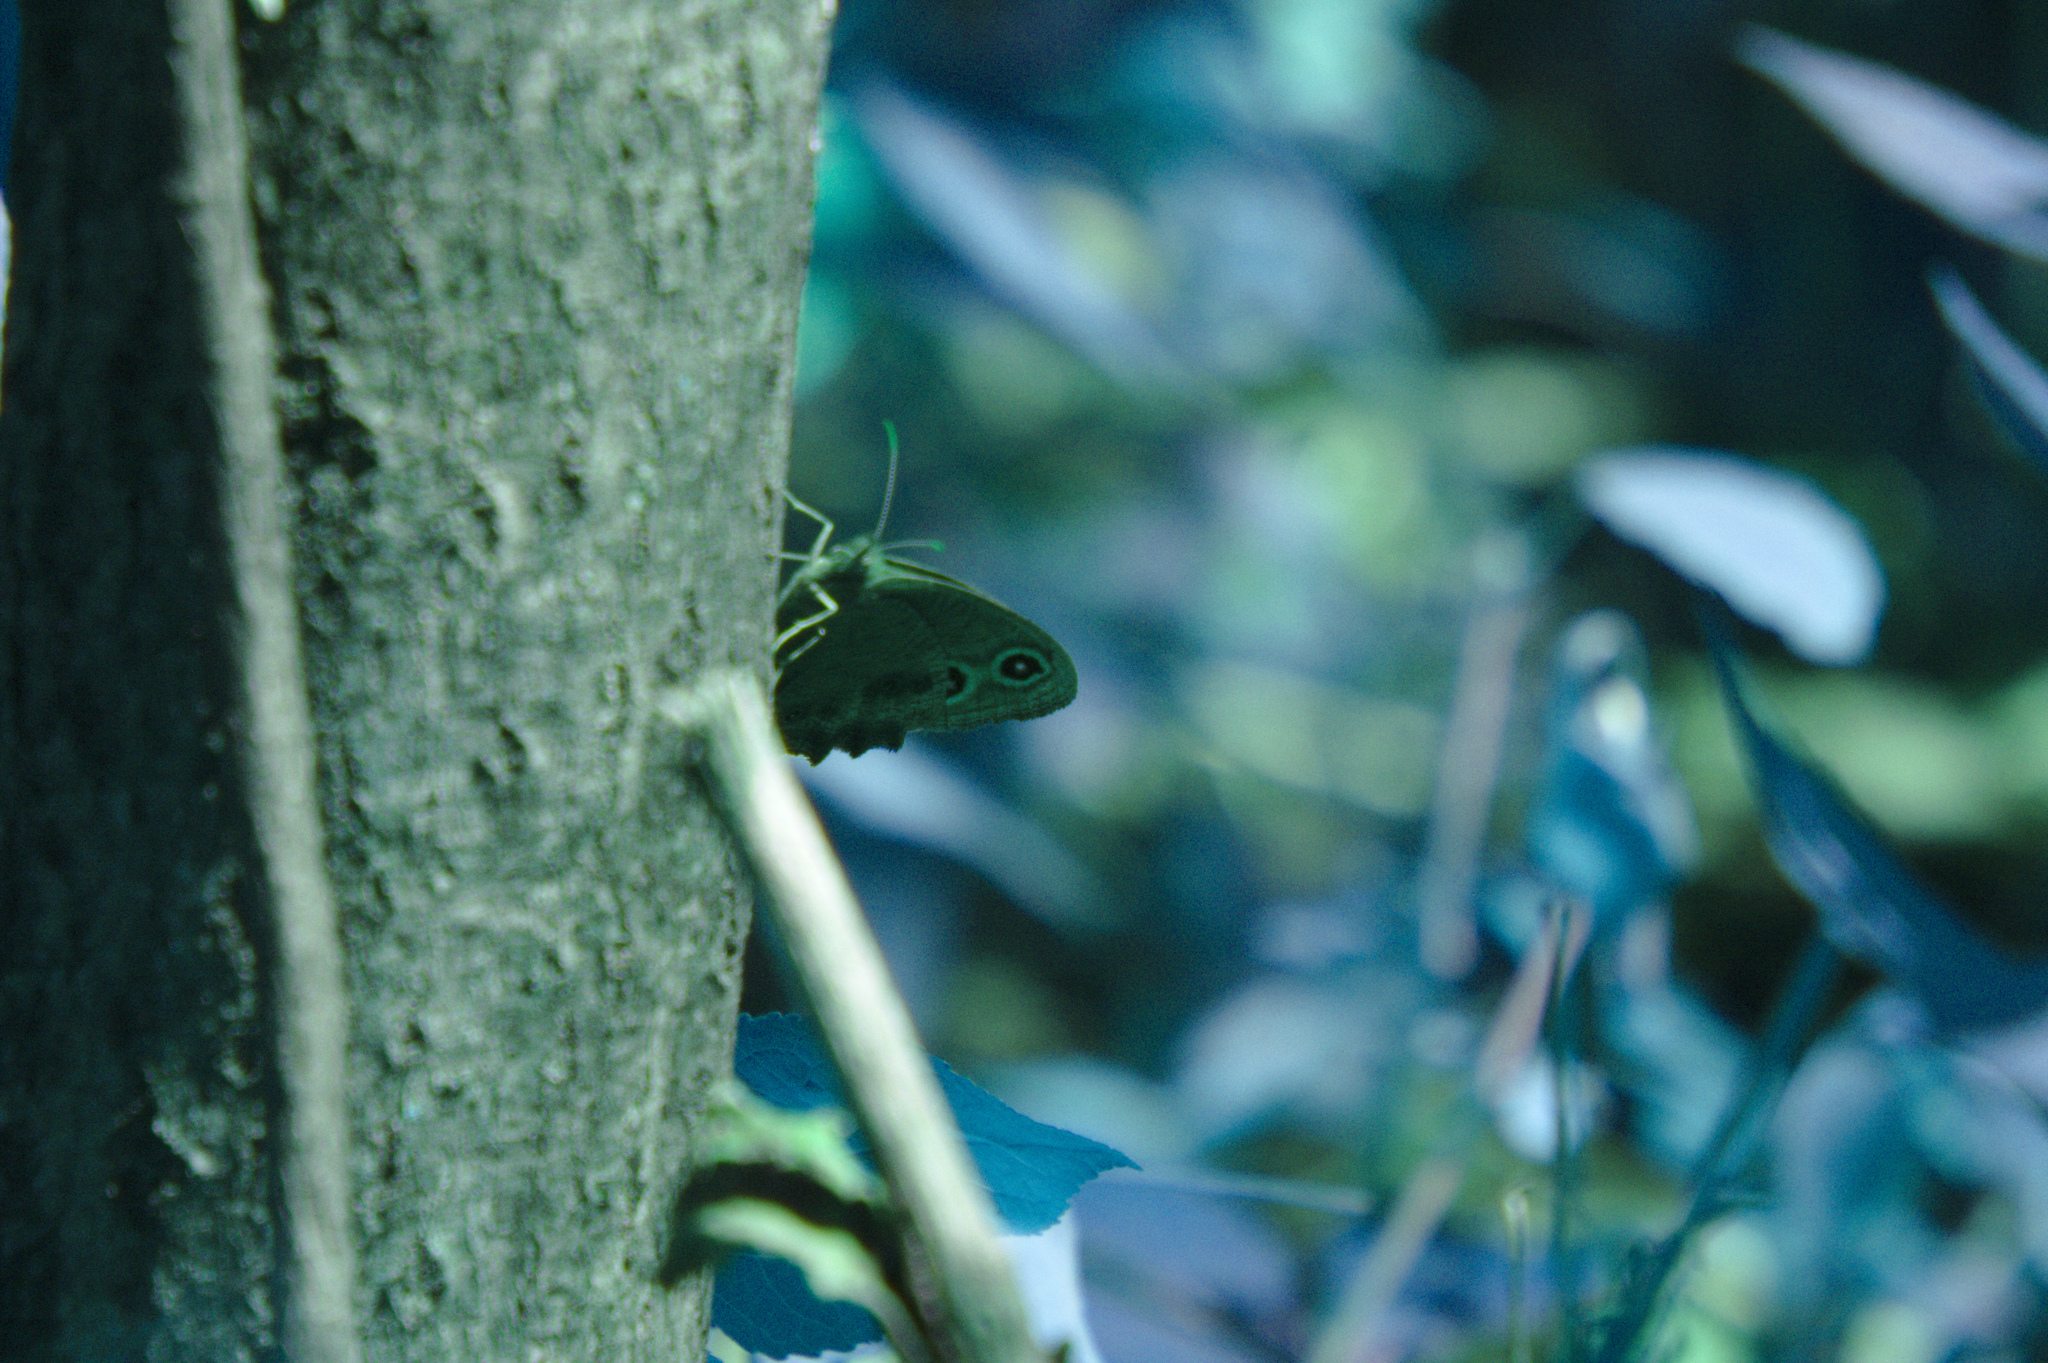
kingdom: Animalia
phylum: Arthropoda
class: Insecta
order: Lepidoptera
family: Nymphalidae
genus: Cercyonis
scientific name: Cercyonis pegala
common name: Common wood-nymph
